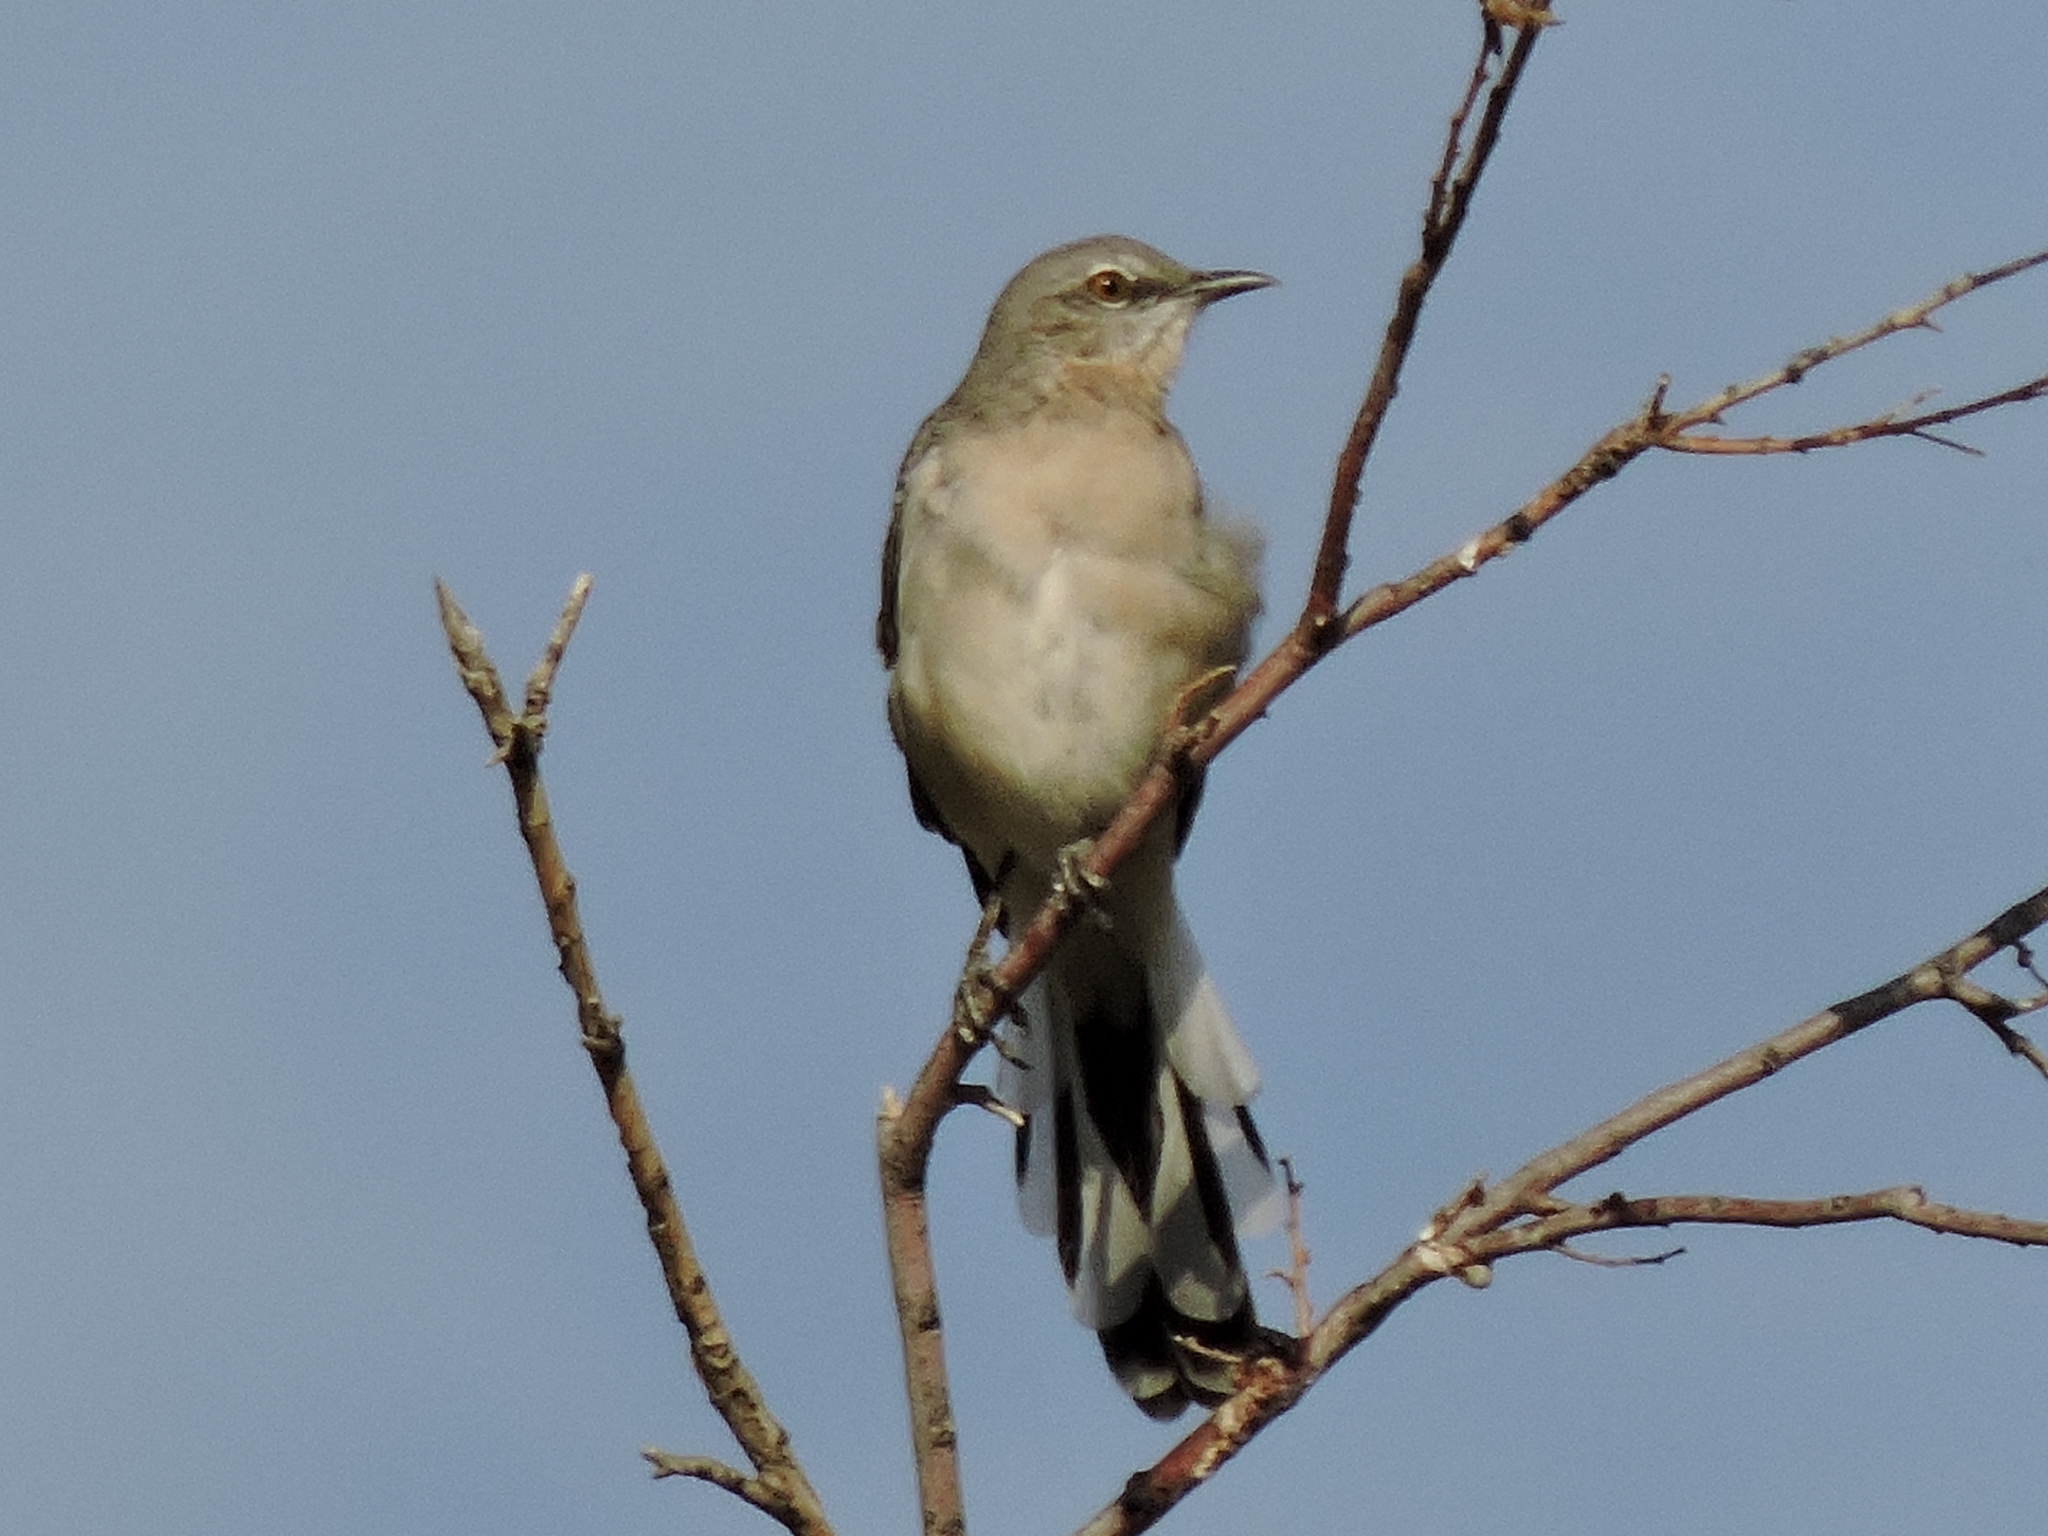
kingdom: Animalia
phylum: Chordata
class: Aves
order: Passeriformes
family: Mimidae
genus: Mimus
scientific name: Mimus polyglottos
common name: Northern mockingbird
